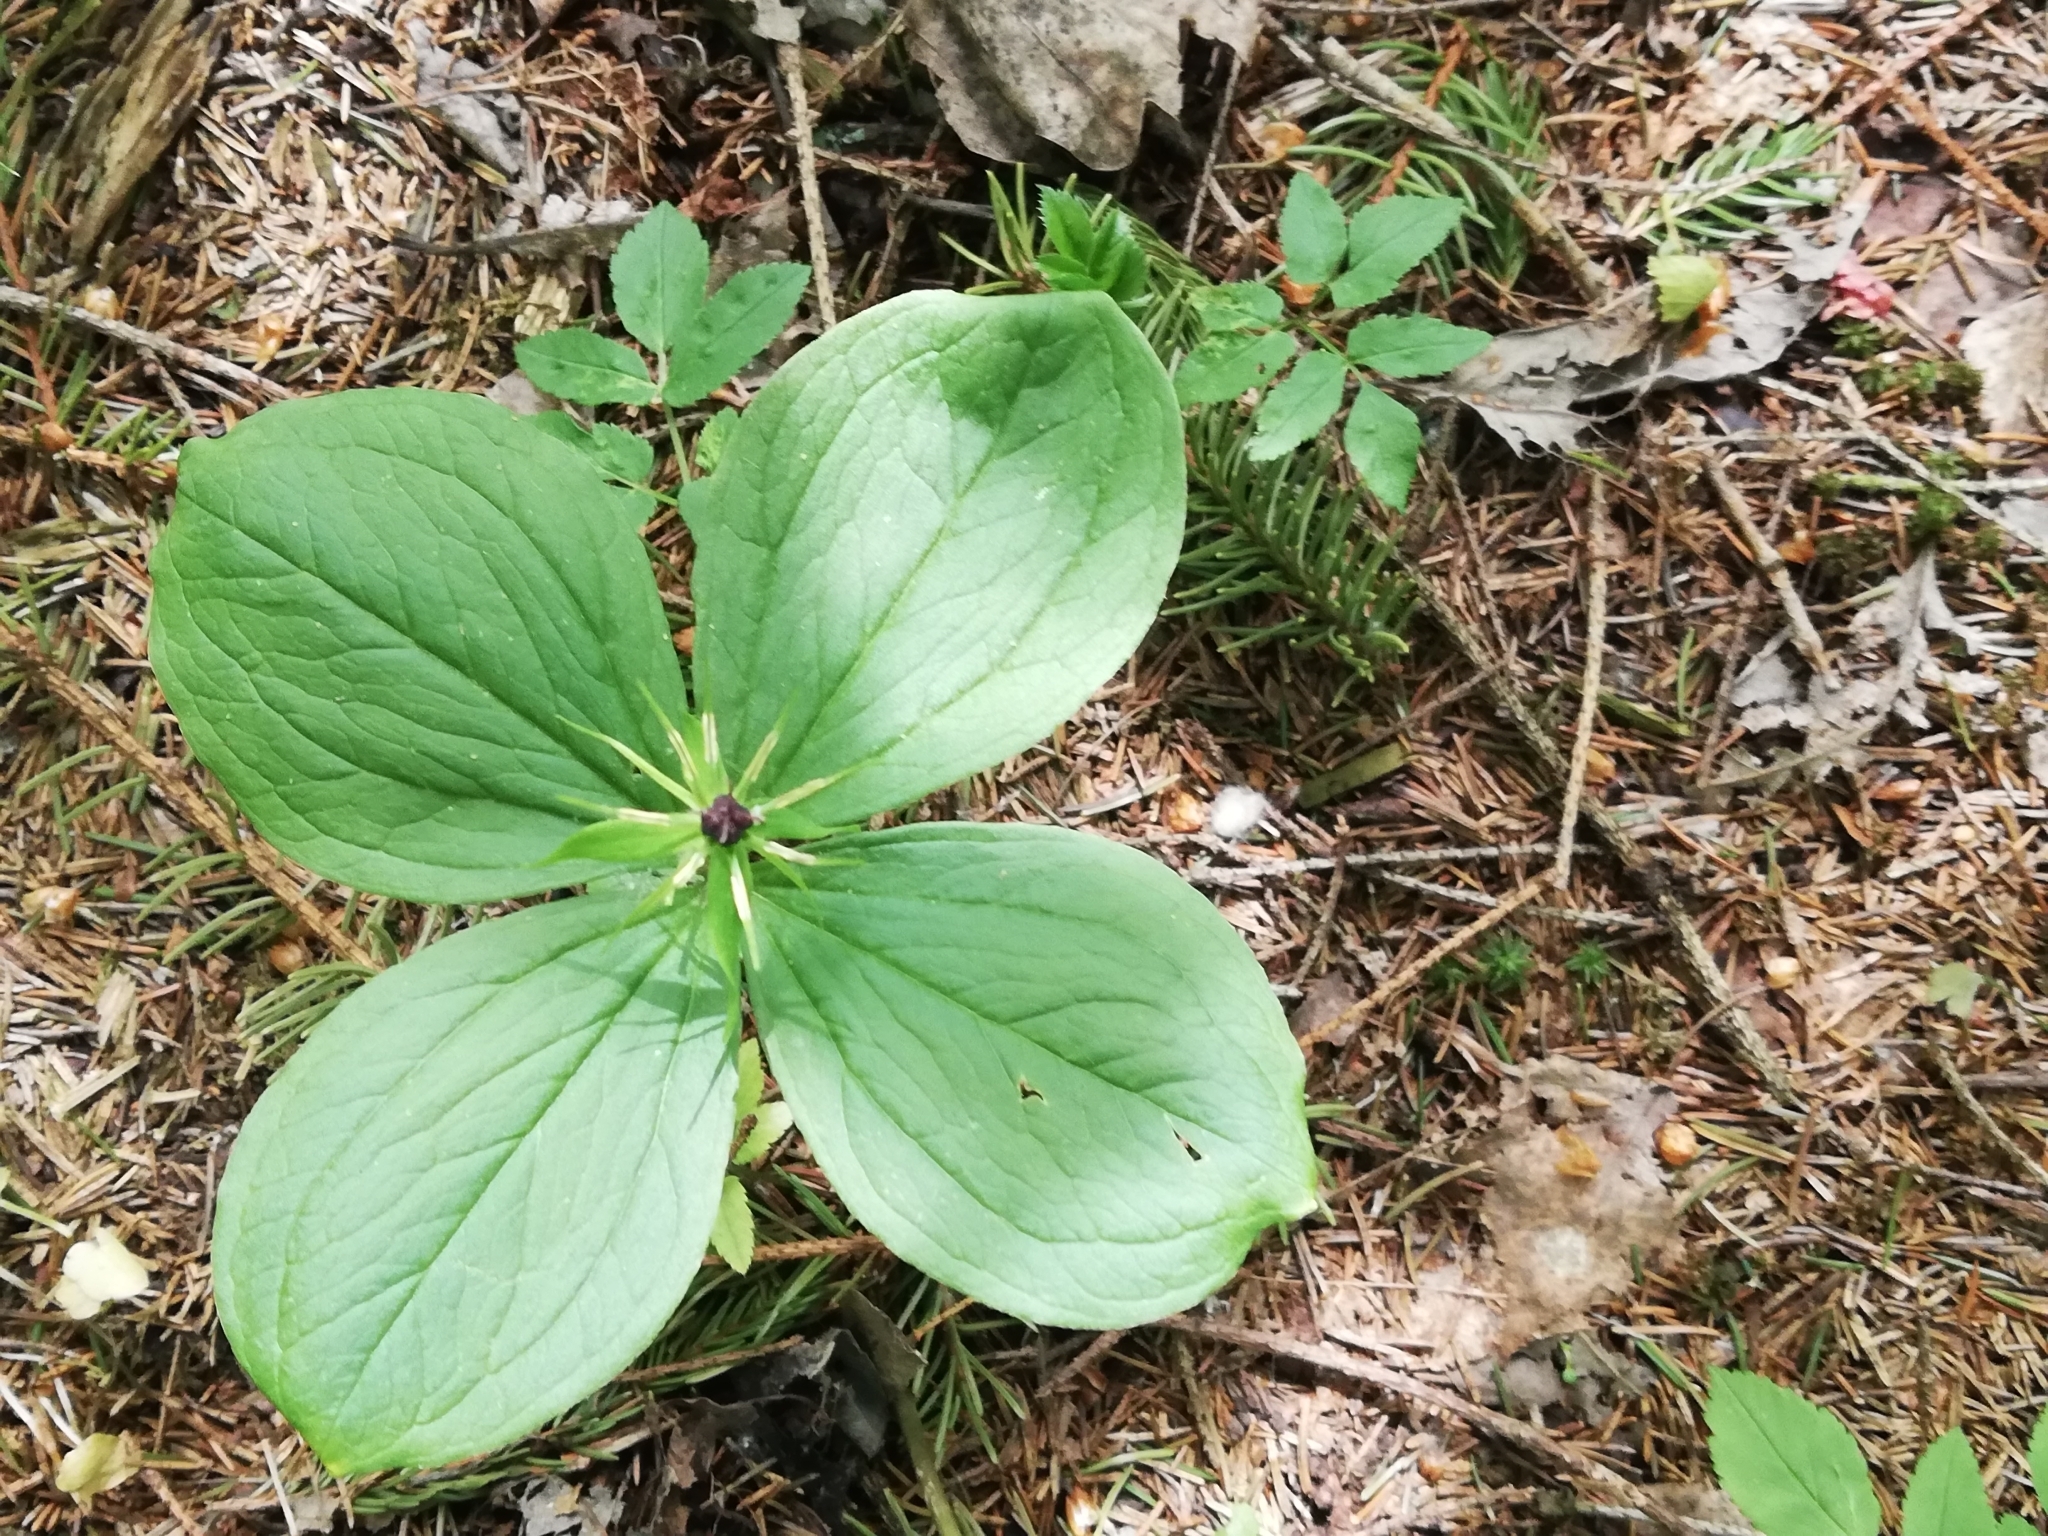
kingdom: Plantae
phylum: Tracheophyta
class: Liliopsida
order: Liliales
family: Melanthiaceae
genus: Paris
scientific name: Paris quadrifolia
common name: Herb-paris
